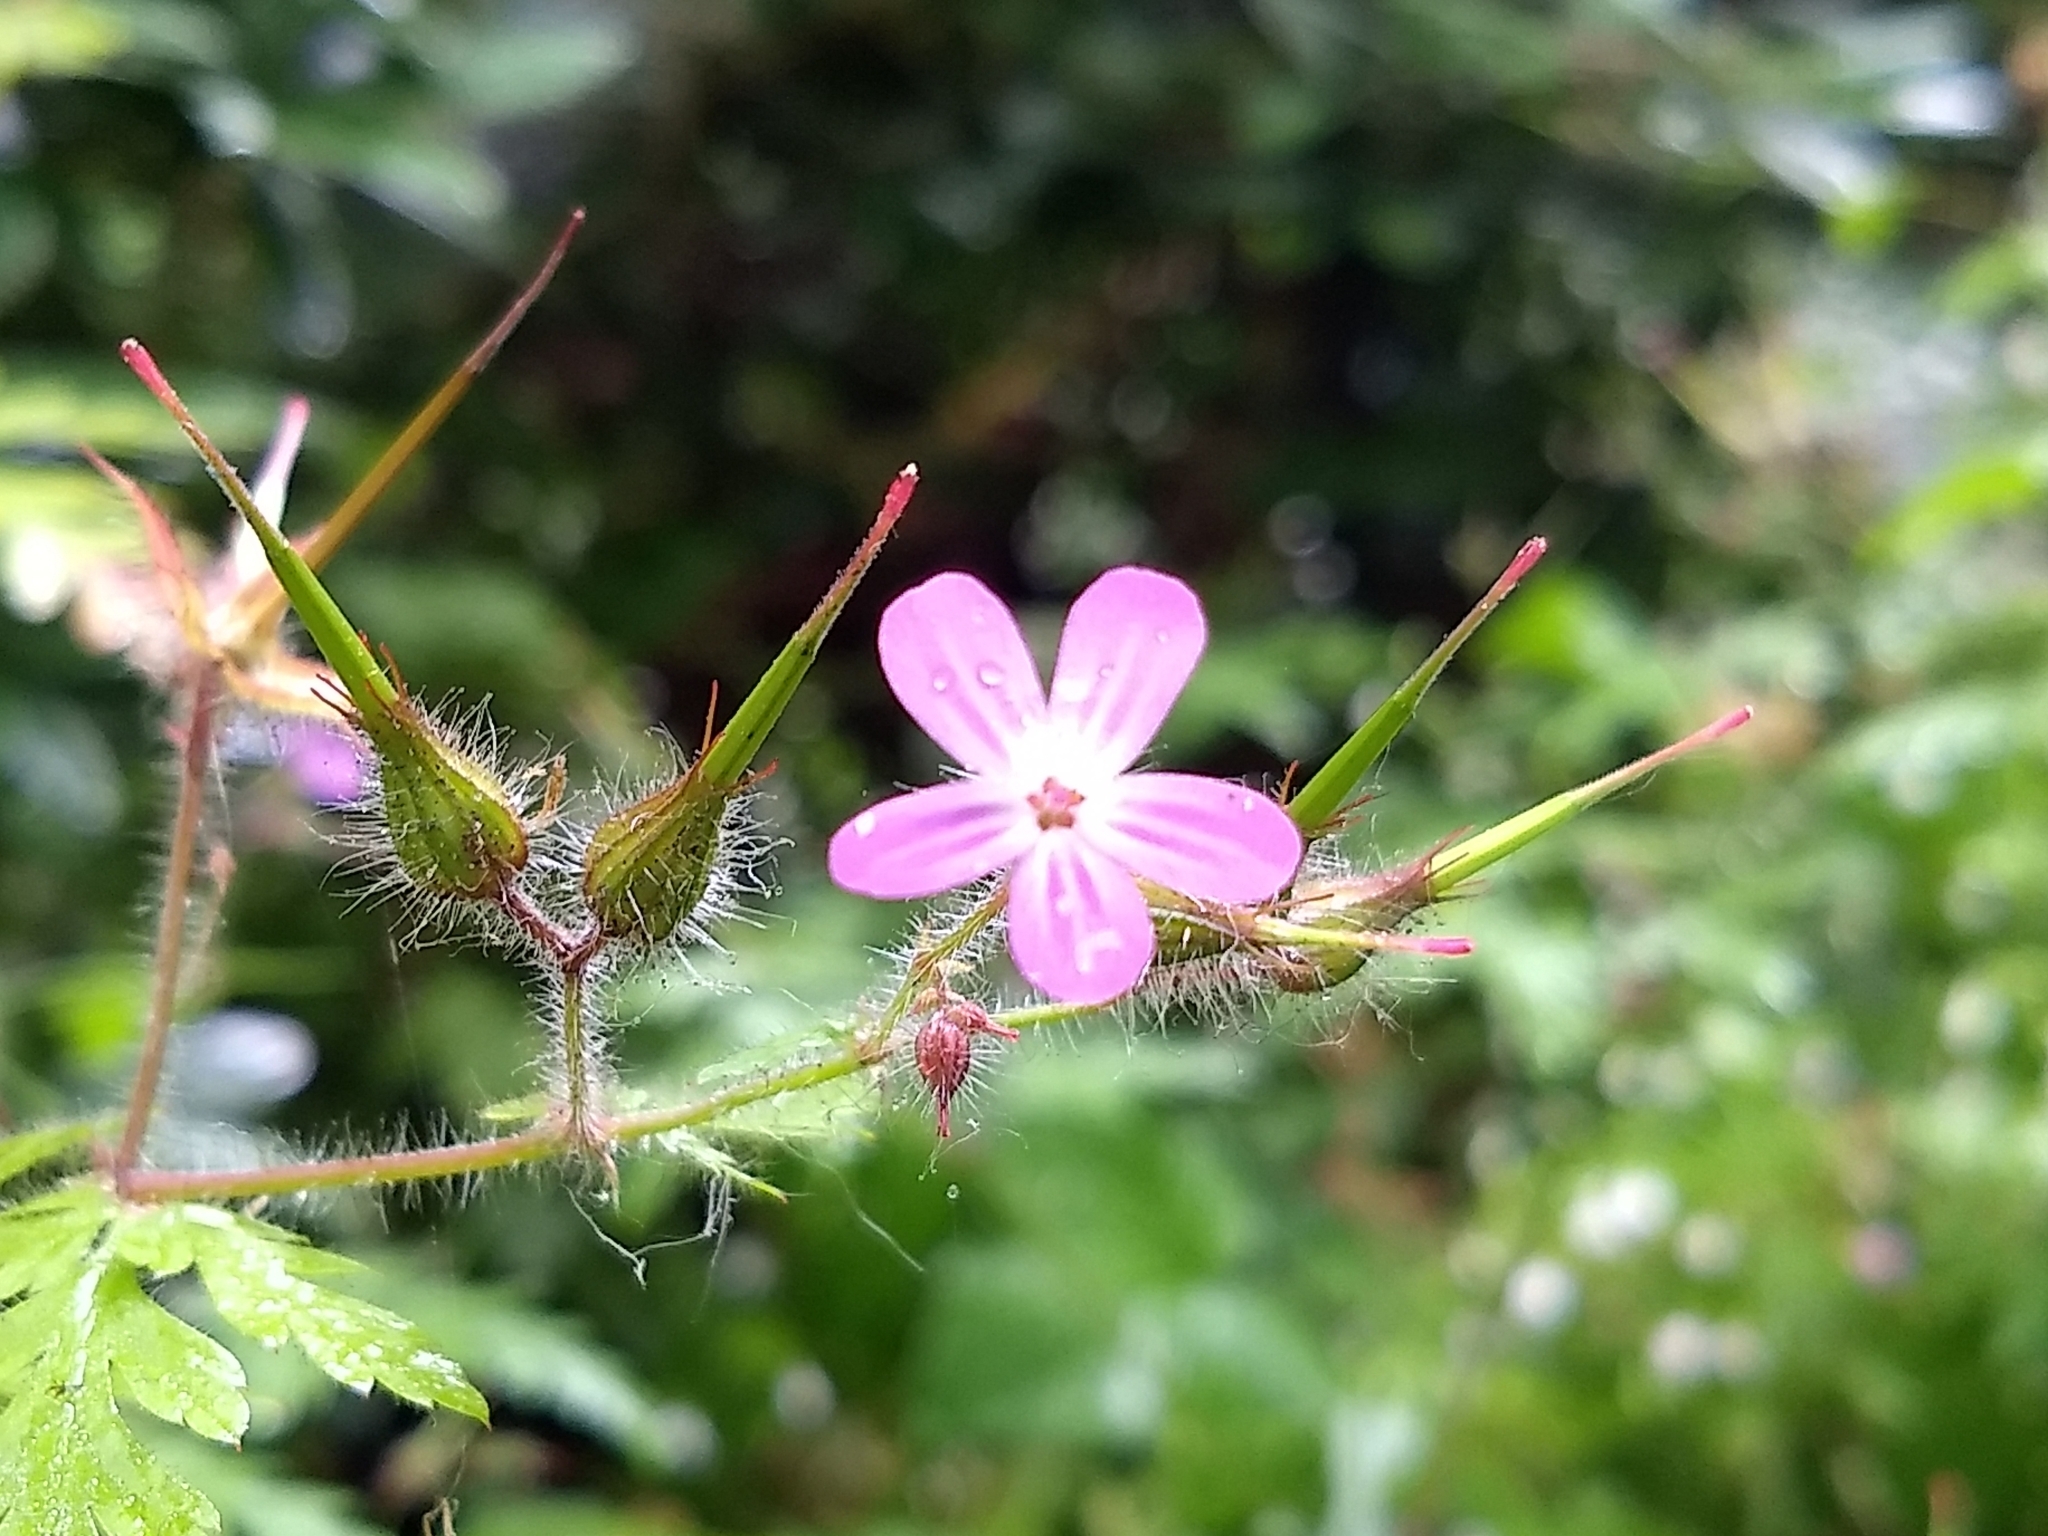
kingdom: Plantae
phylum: Tracheophyta
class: Magnoliopsida
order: Geraniales
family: Geraniaceae
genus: Geranium
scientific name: Geranium robertianum
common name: Herb-robert
